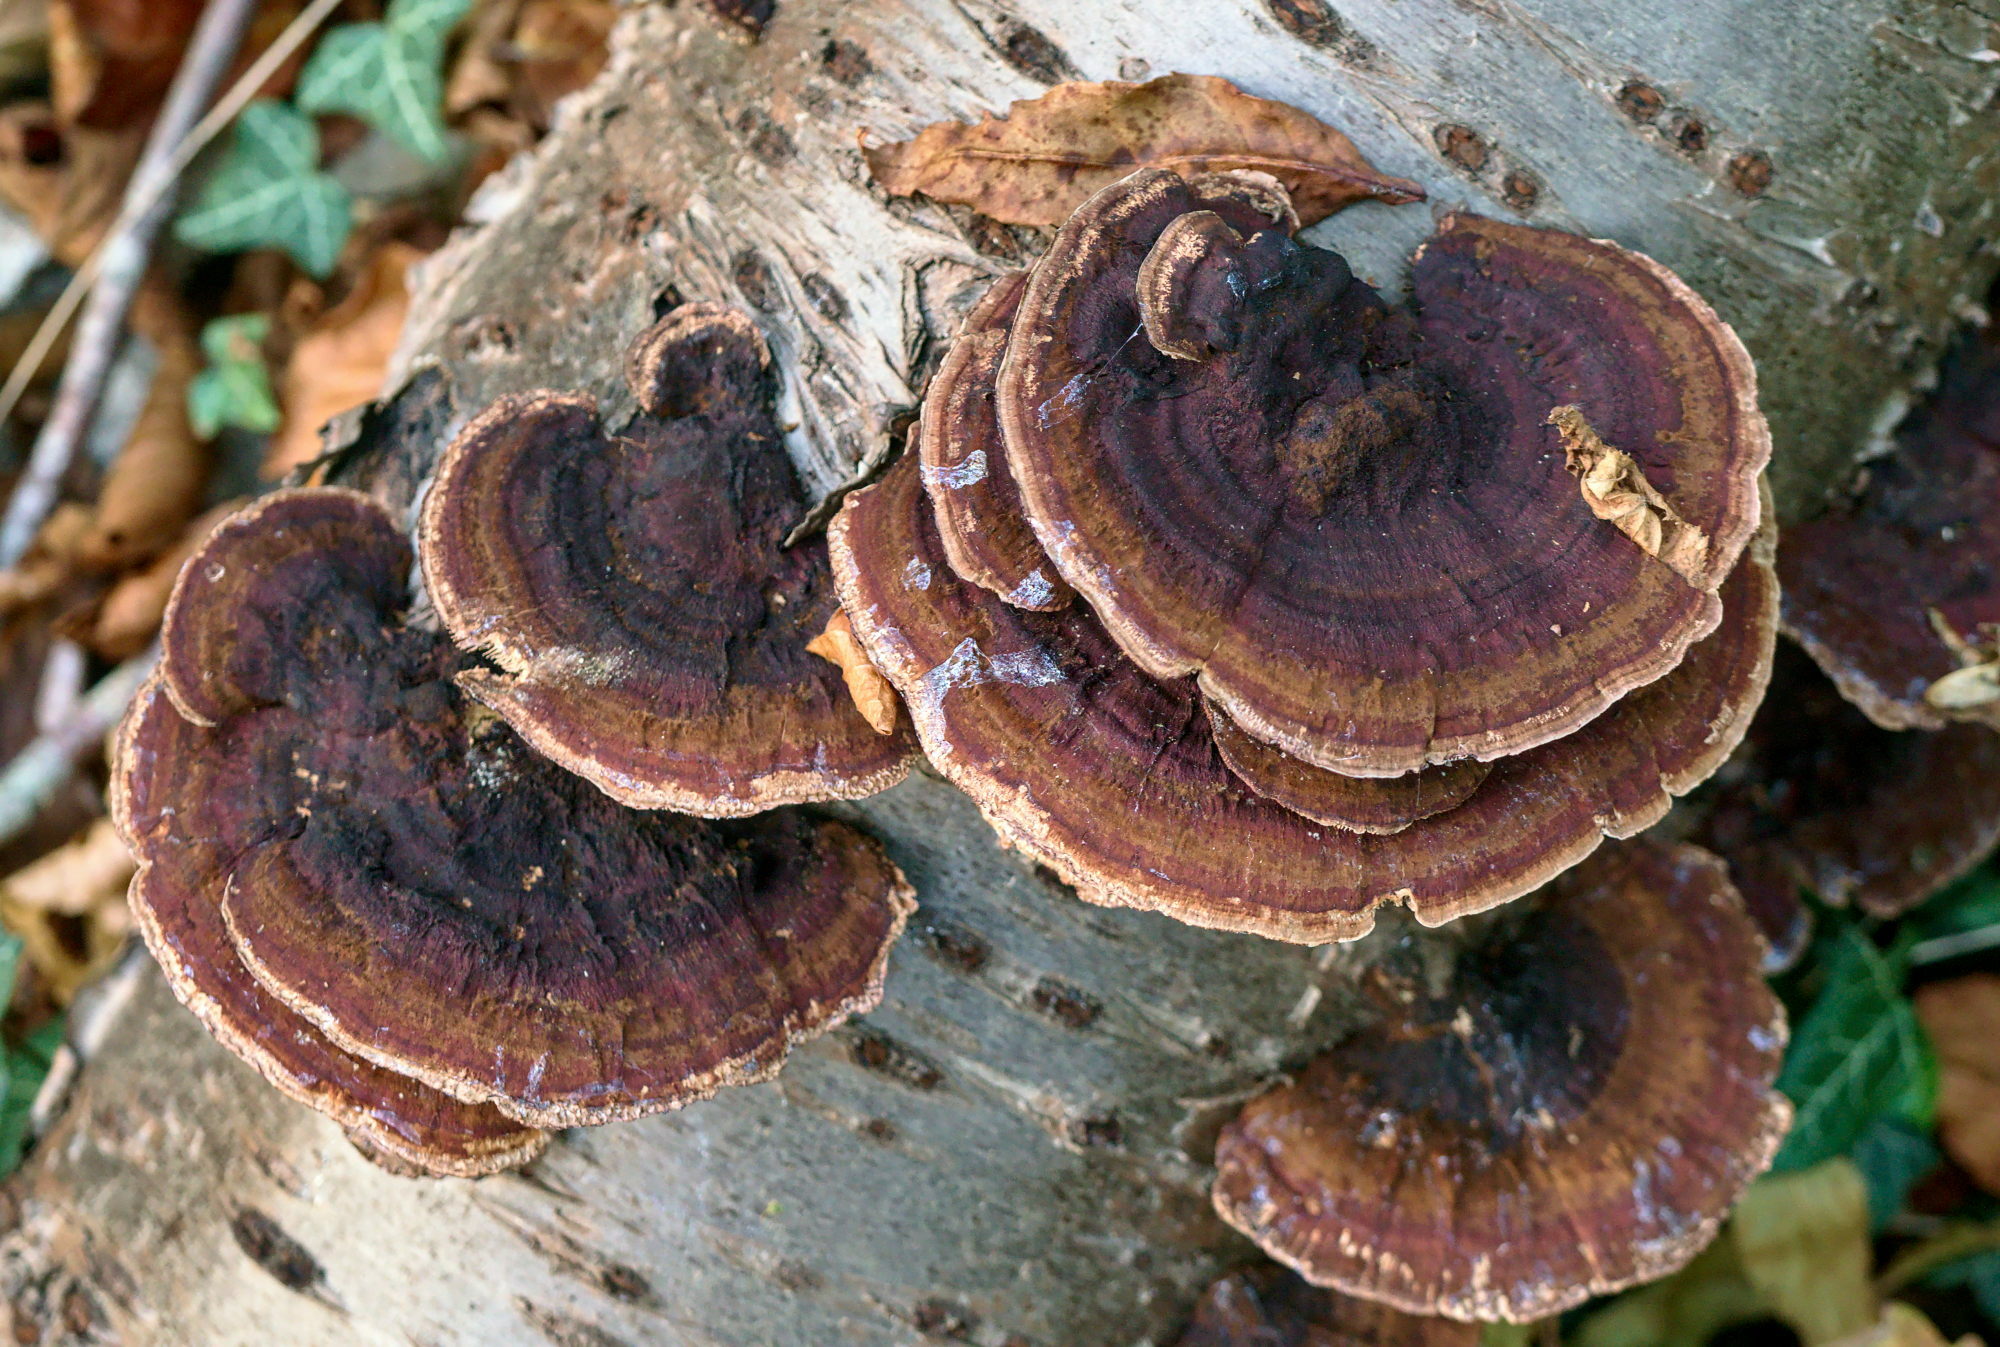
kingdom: Fungi
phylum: Basidiomycota
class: Agaricomycetes
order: Polyporales
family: Polyporaceae
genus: Daedaleopsis
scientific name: Daedaleopsis tricolor
